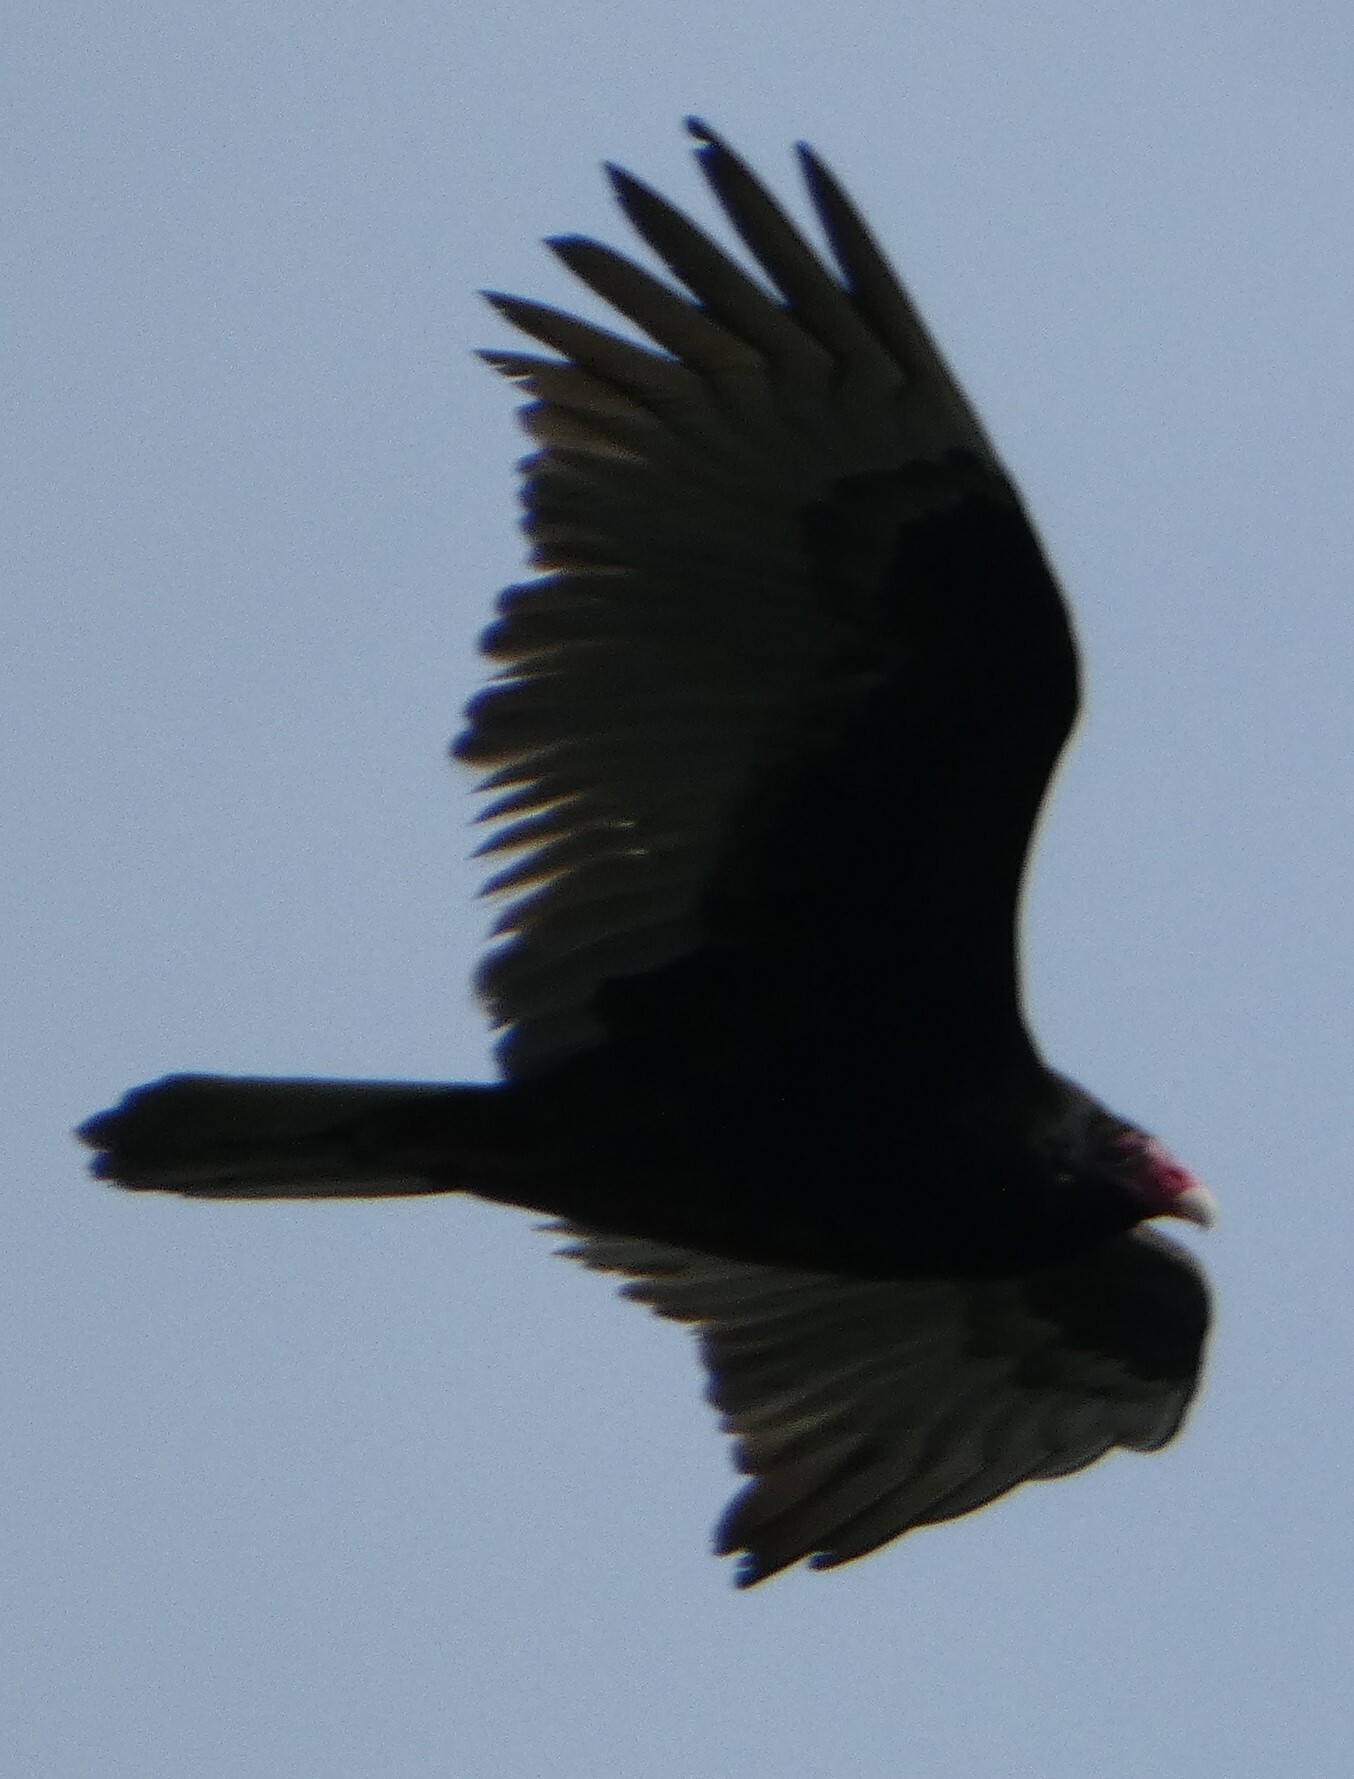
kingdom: Animalia
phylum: Chordata
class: Aves
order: Accipitriformes
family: Cathartidae
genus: Cathartes
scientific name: Cathartes aura
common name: Turkey vulture
